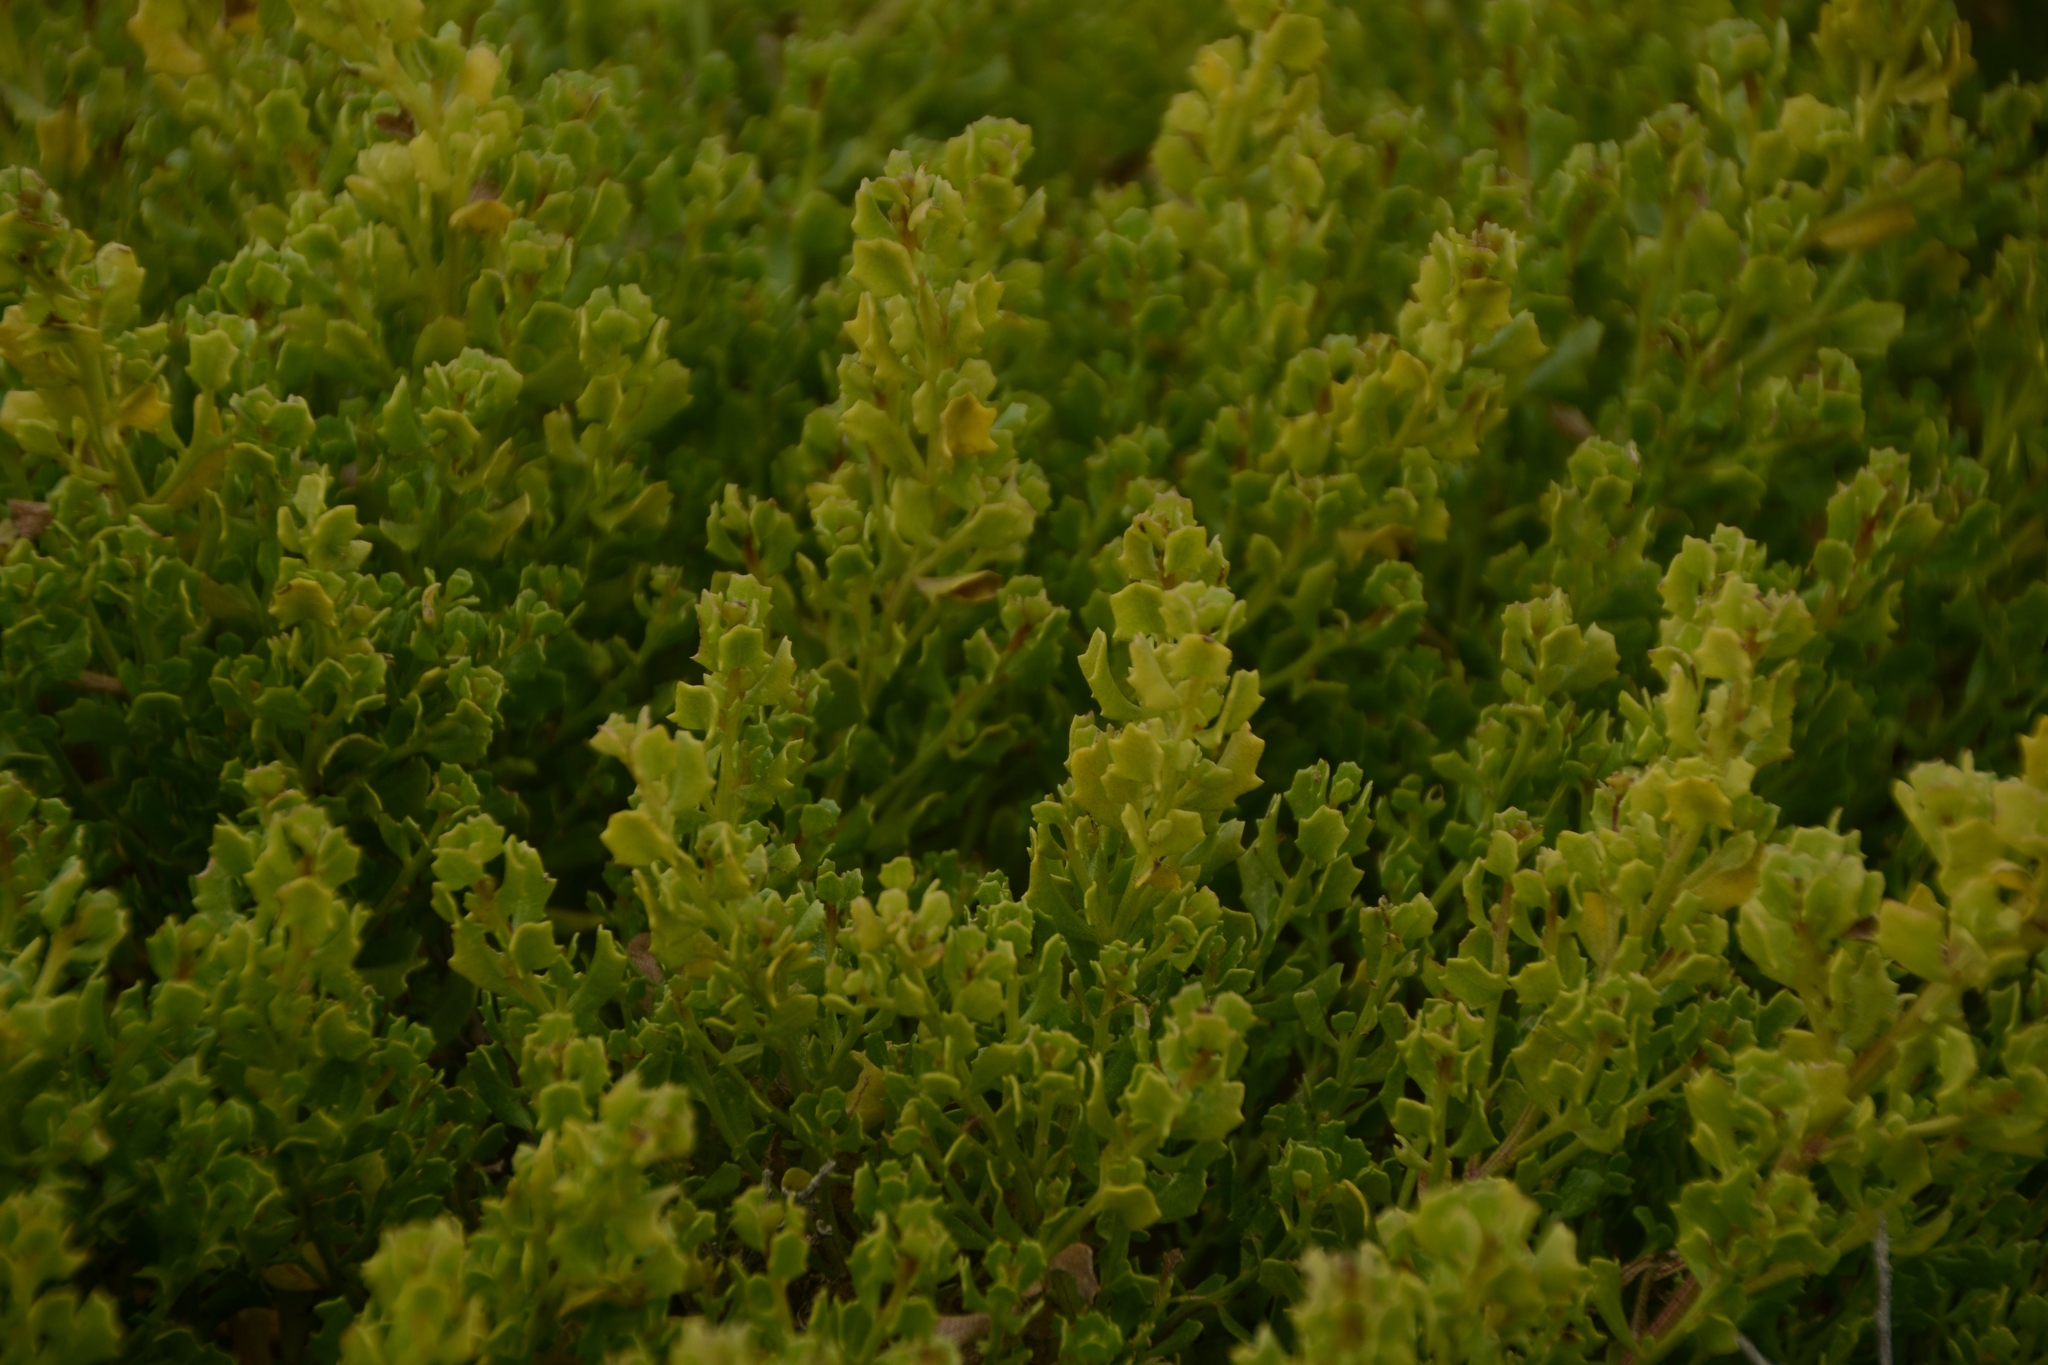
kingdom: Plantae
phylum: Tracheophyta
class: Magnoliopsida
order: Asterales
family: Asteraceae
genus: Baccharis
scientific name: Baccharis pilularis
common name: Coyotebrush
